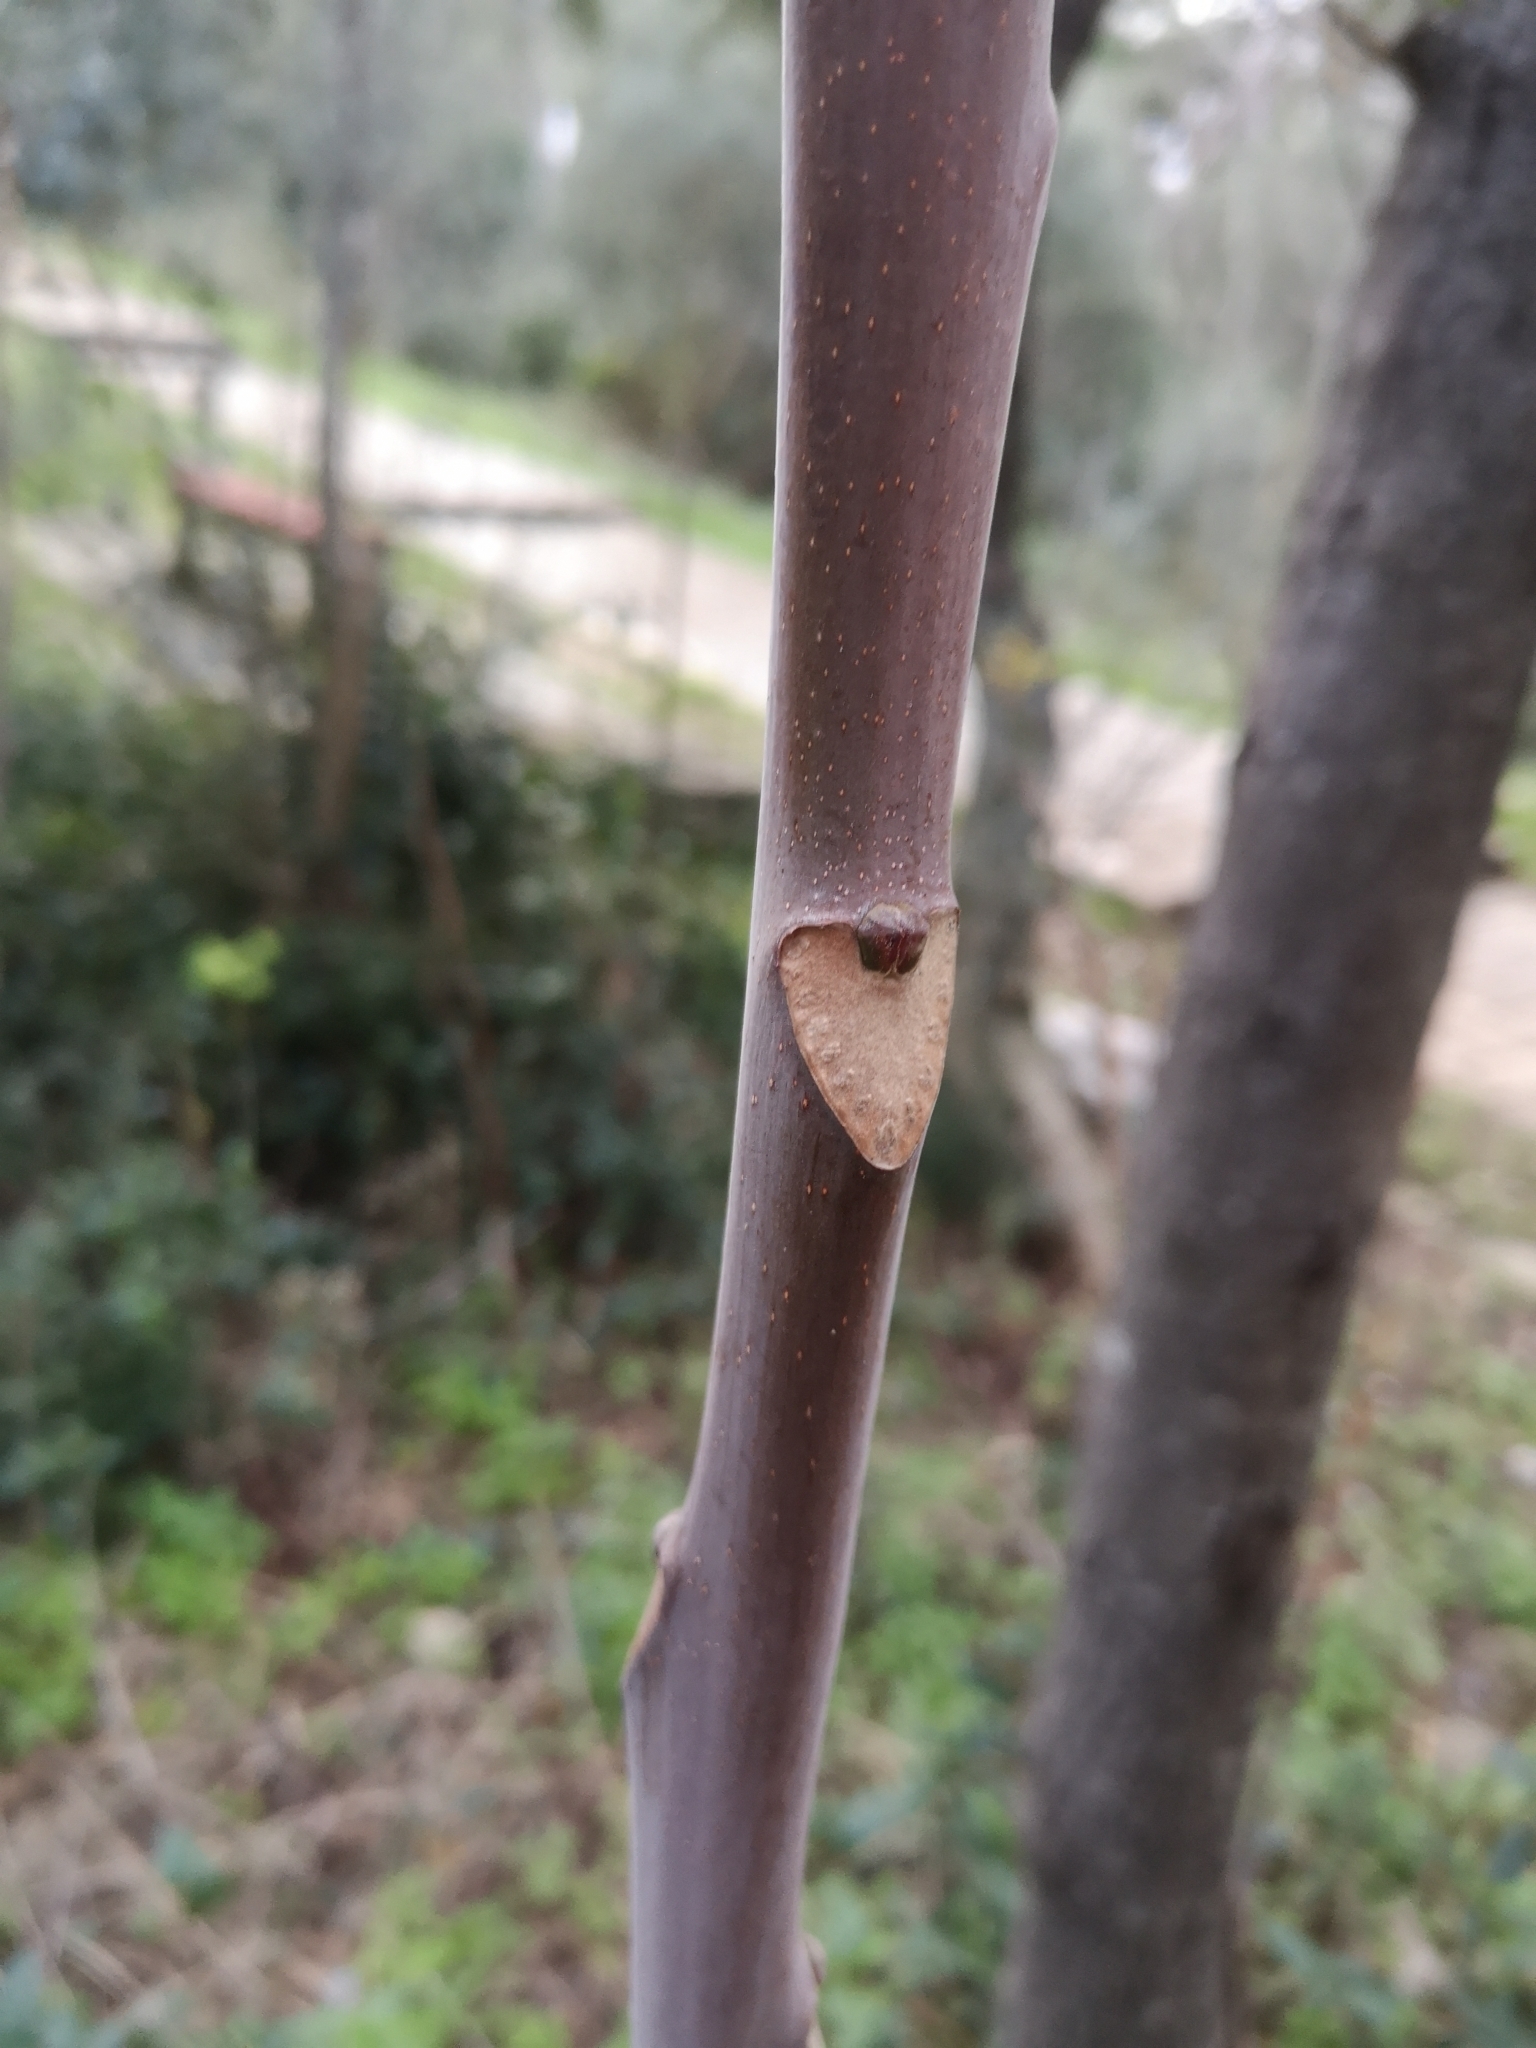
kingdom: Plantae
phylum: Tracheophyta
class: Magnoliopsida
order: Sapindales
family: Simaroubaceae
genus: Ailanthus
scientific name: Ailanthus altissima
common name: Tree-of-heaven
